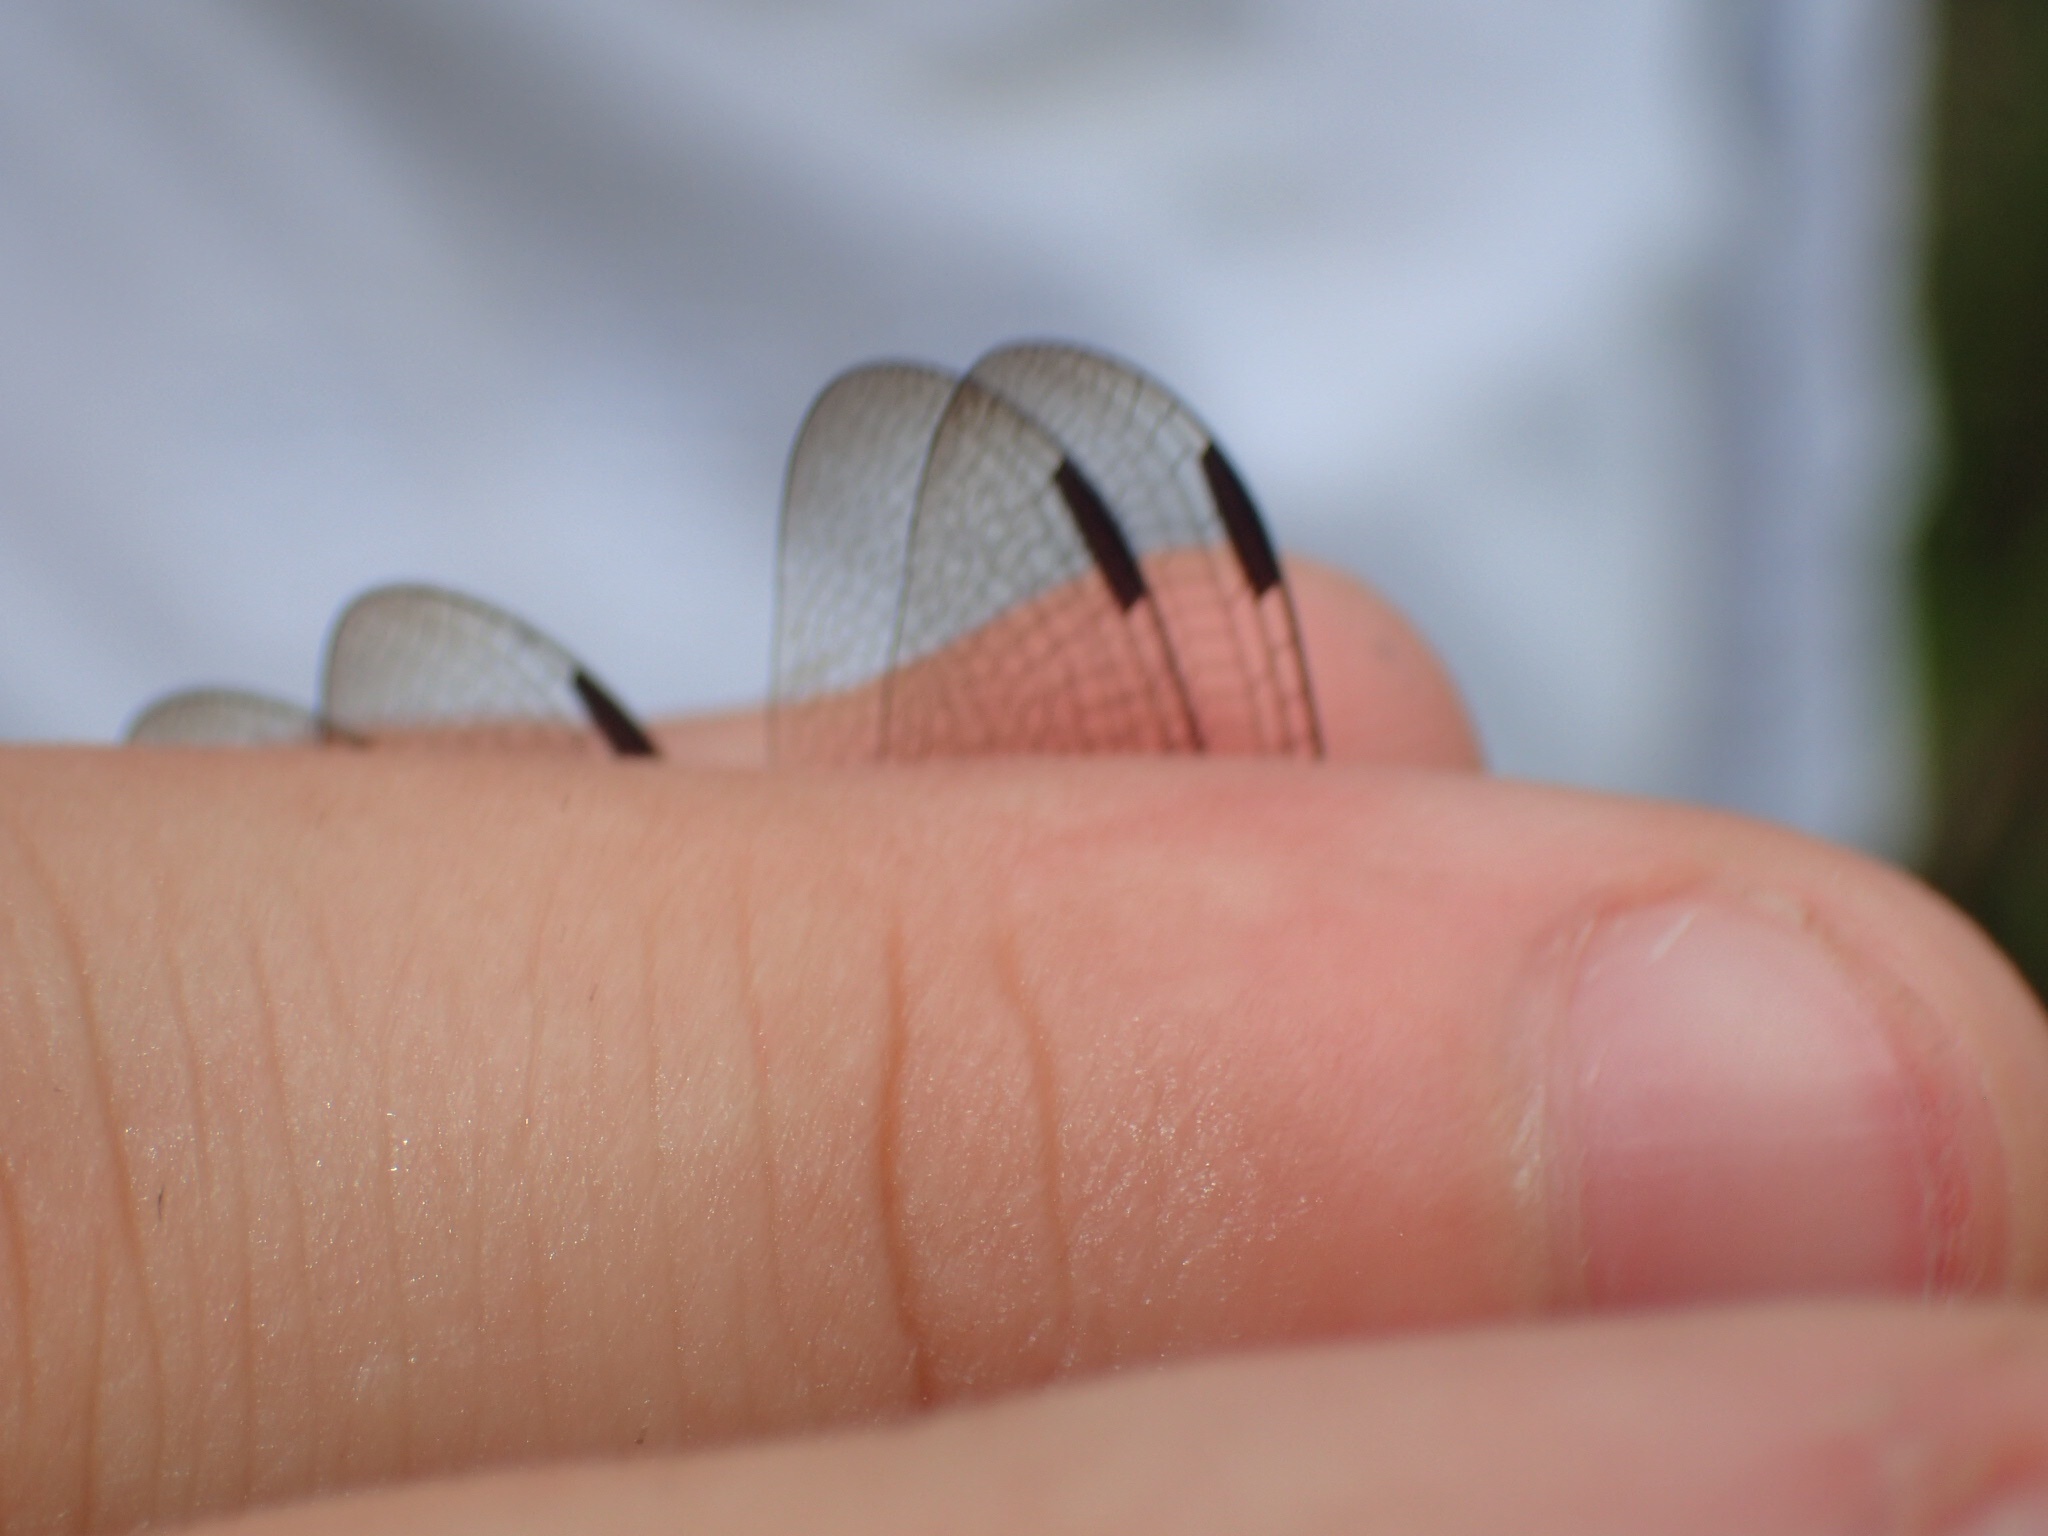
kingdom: Animalia
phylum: Arthropoda
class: Insecta
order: Odonata
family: Libellulidae
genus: Orthetrum
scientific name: Orthetrum pruinosum
